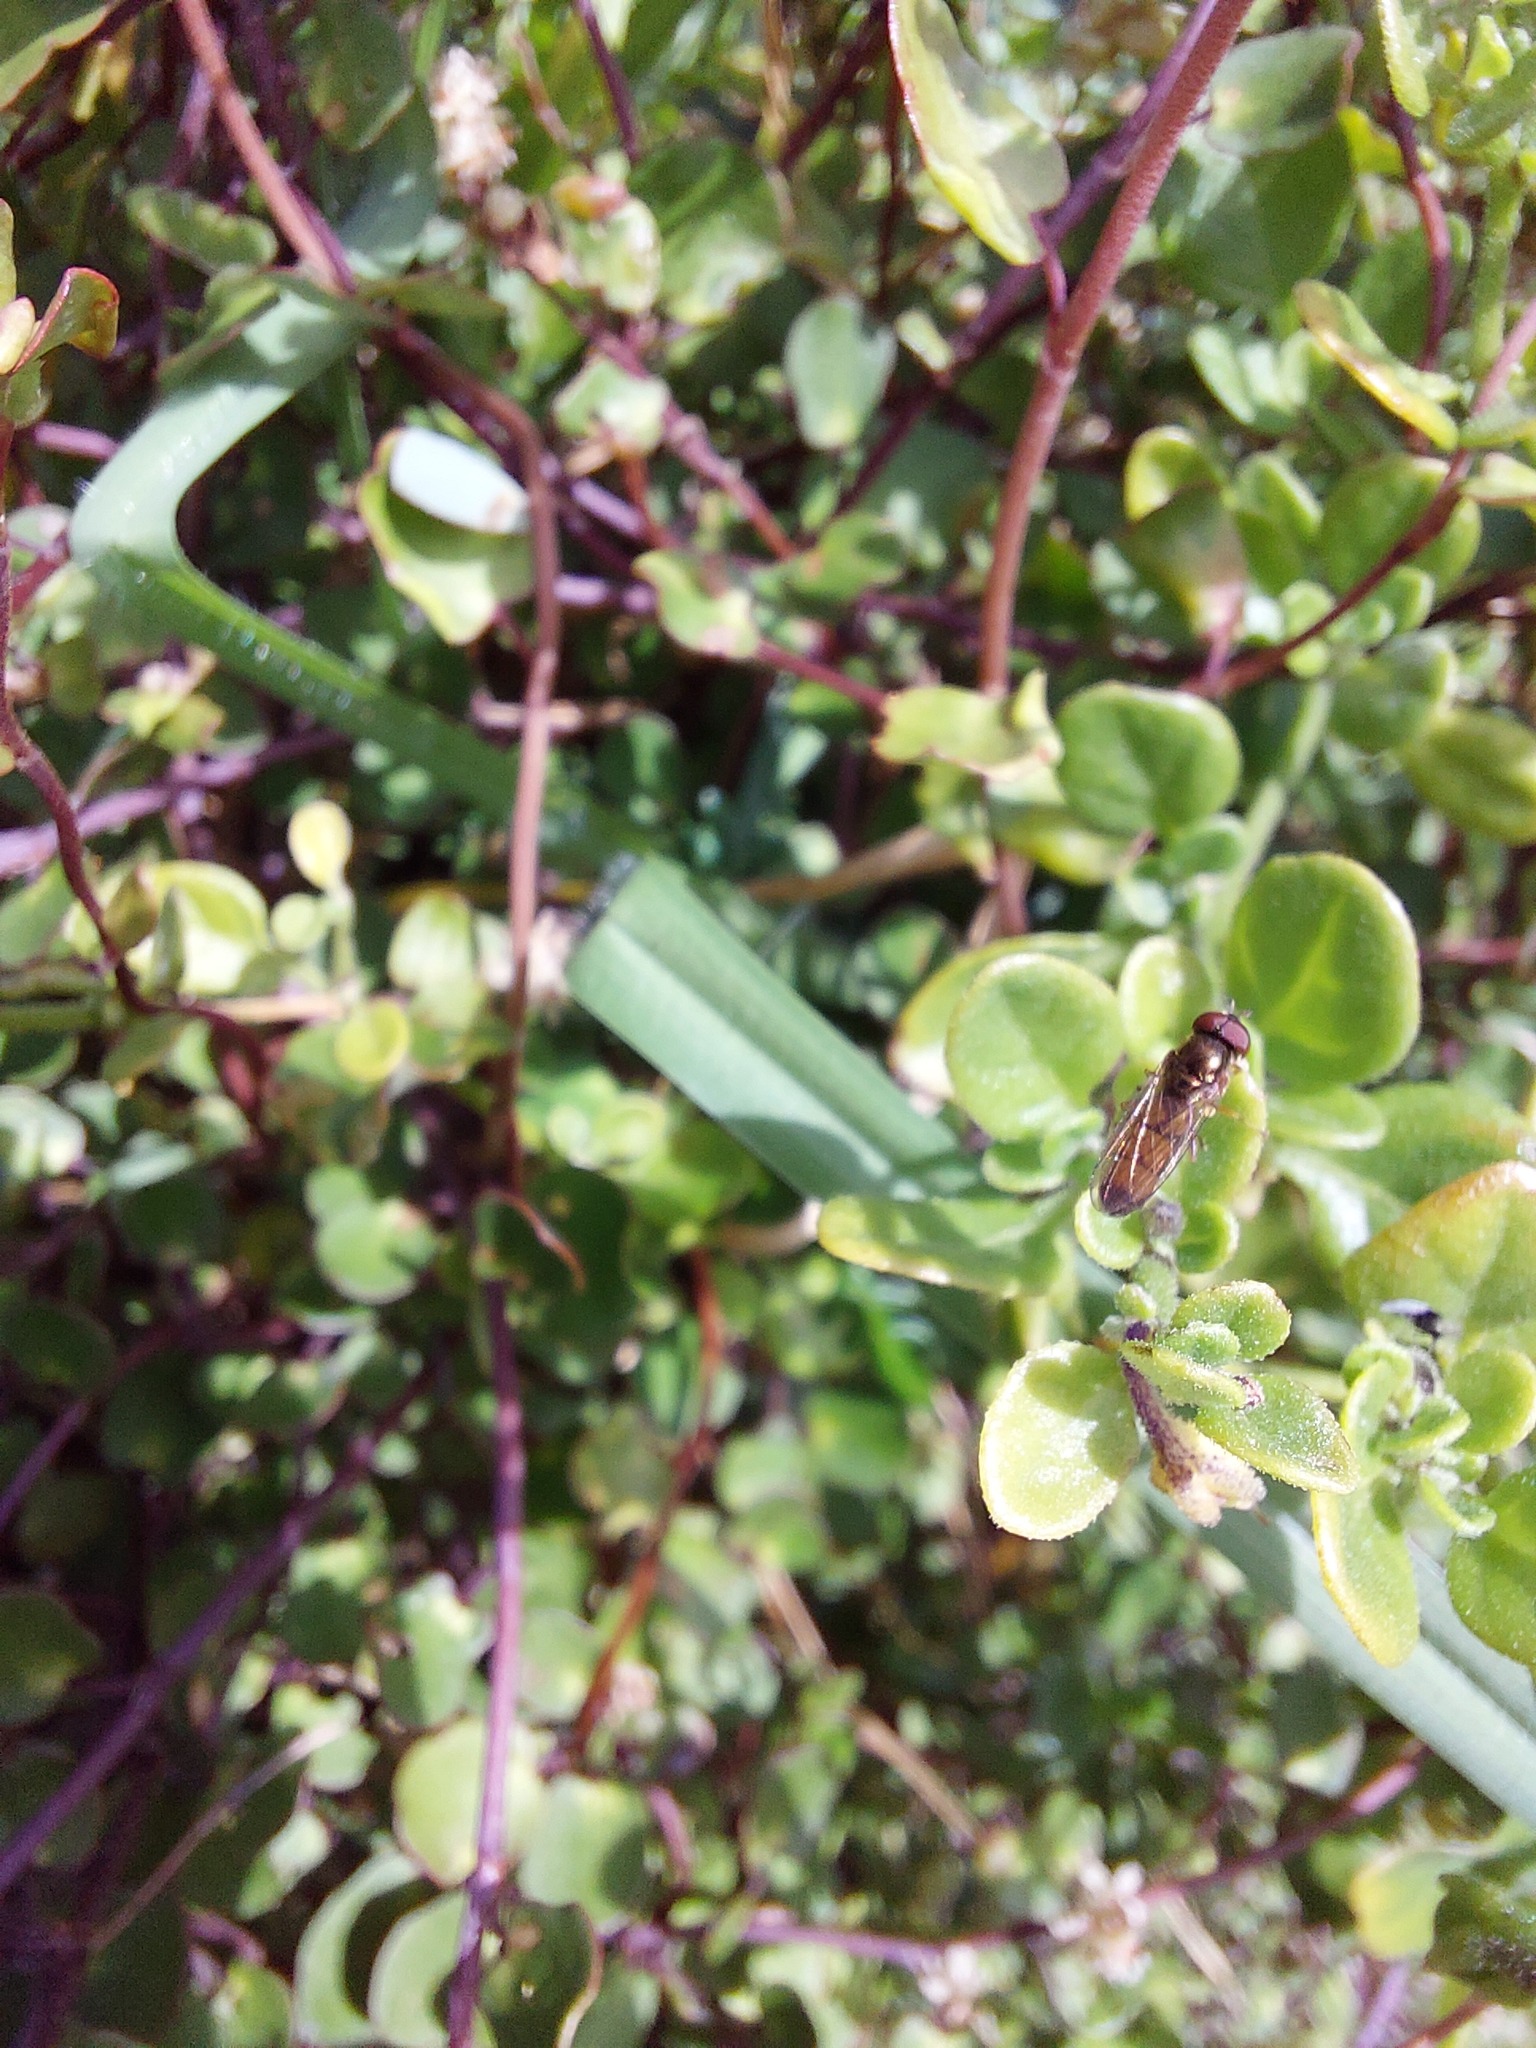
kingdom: Animalia
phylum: Arthropoda
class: Insecta
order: Diptera
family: Syrphidae
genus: Melanostoma
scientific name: Melanostoma fasciatum
